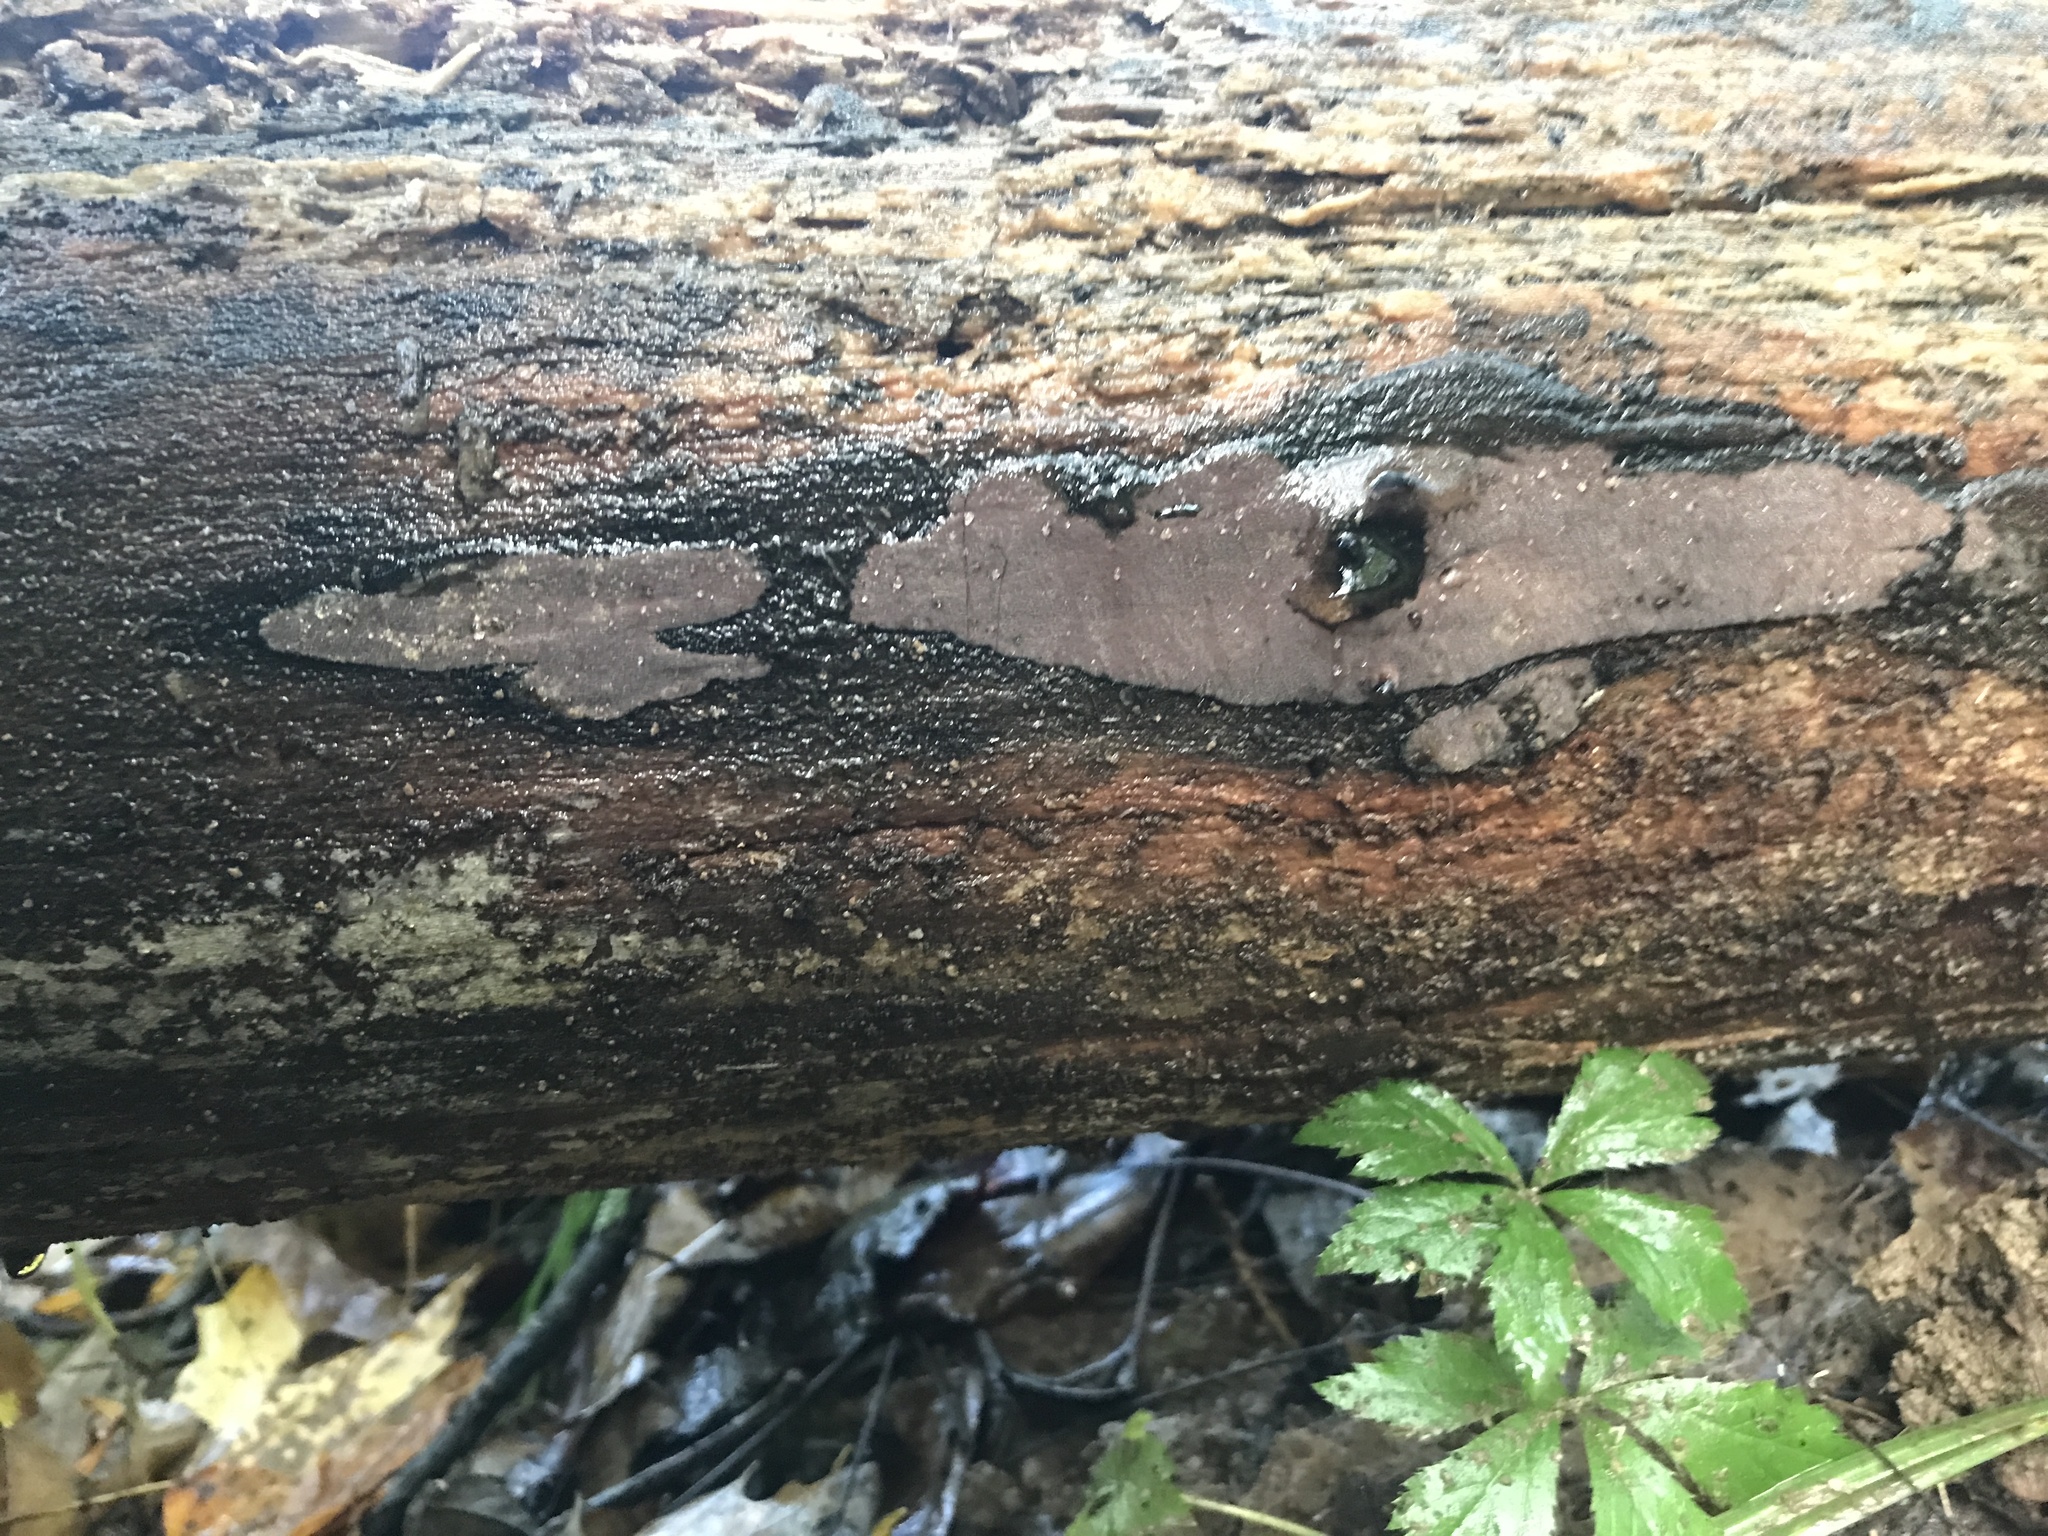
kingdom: Fungi
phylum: Ascomycota
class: Sordariomycetes
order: Xylariales
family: Hypoxylaceae
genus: Hypoxylon
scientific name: Hypoxylon rubiginosum
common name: Rusty woodwart
